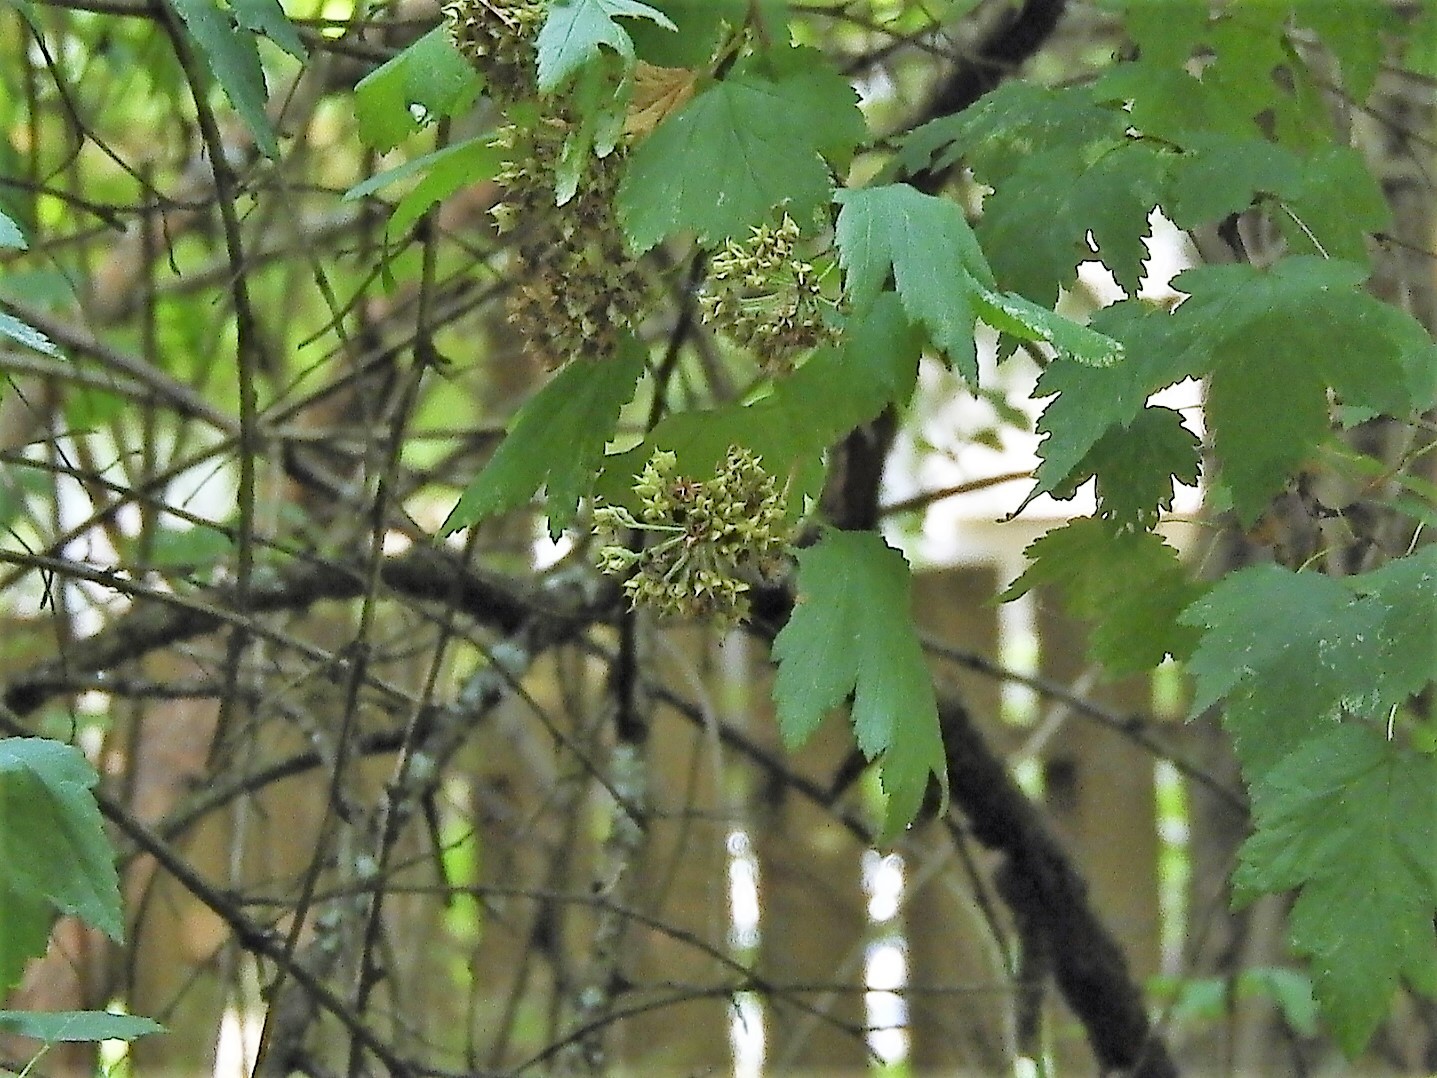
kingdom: Plantae
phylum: Tracheophyta
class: Magnoliopsida
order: Rosales
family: Rosaceae
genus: Physocarpus
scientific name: Physocarpus capitatus
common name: Pacific ninebark
